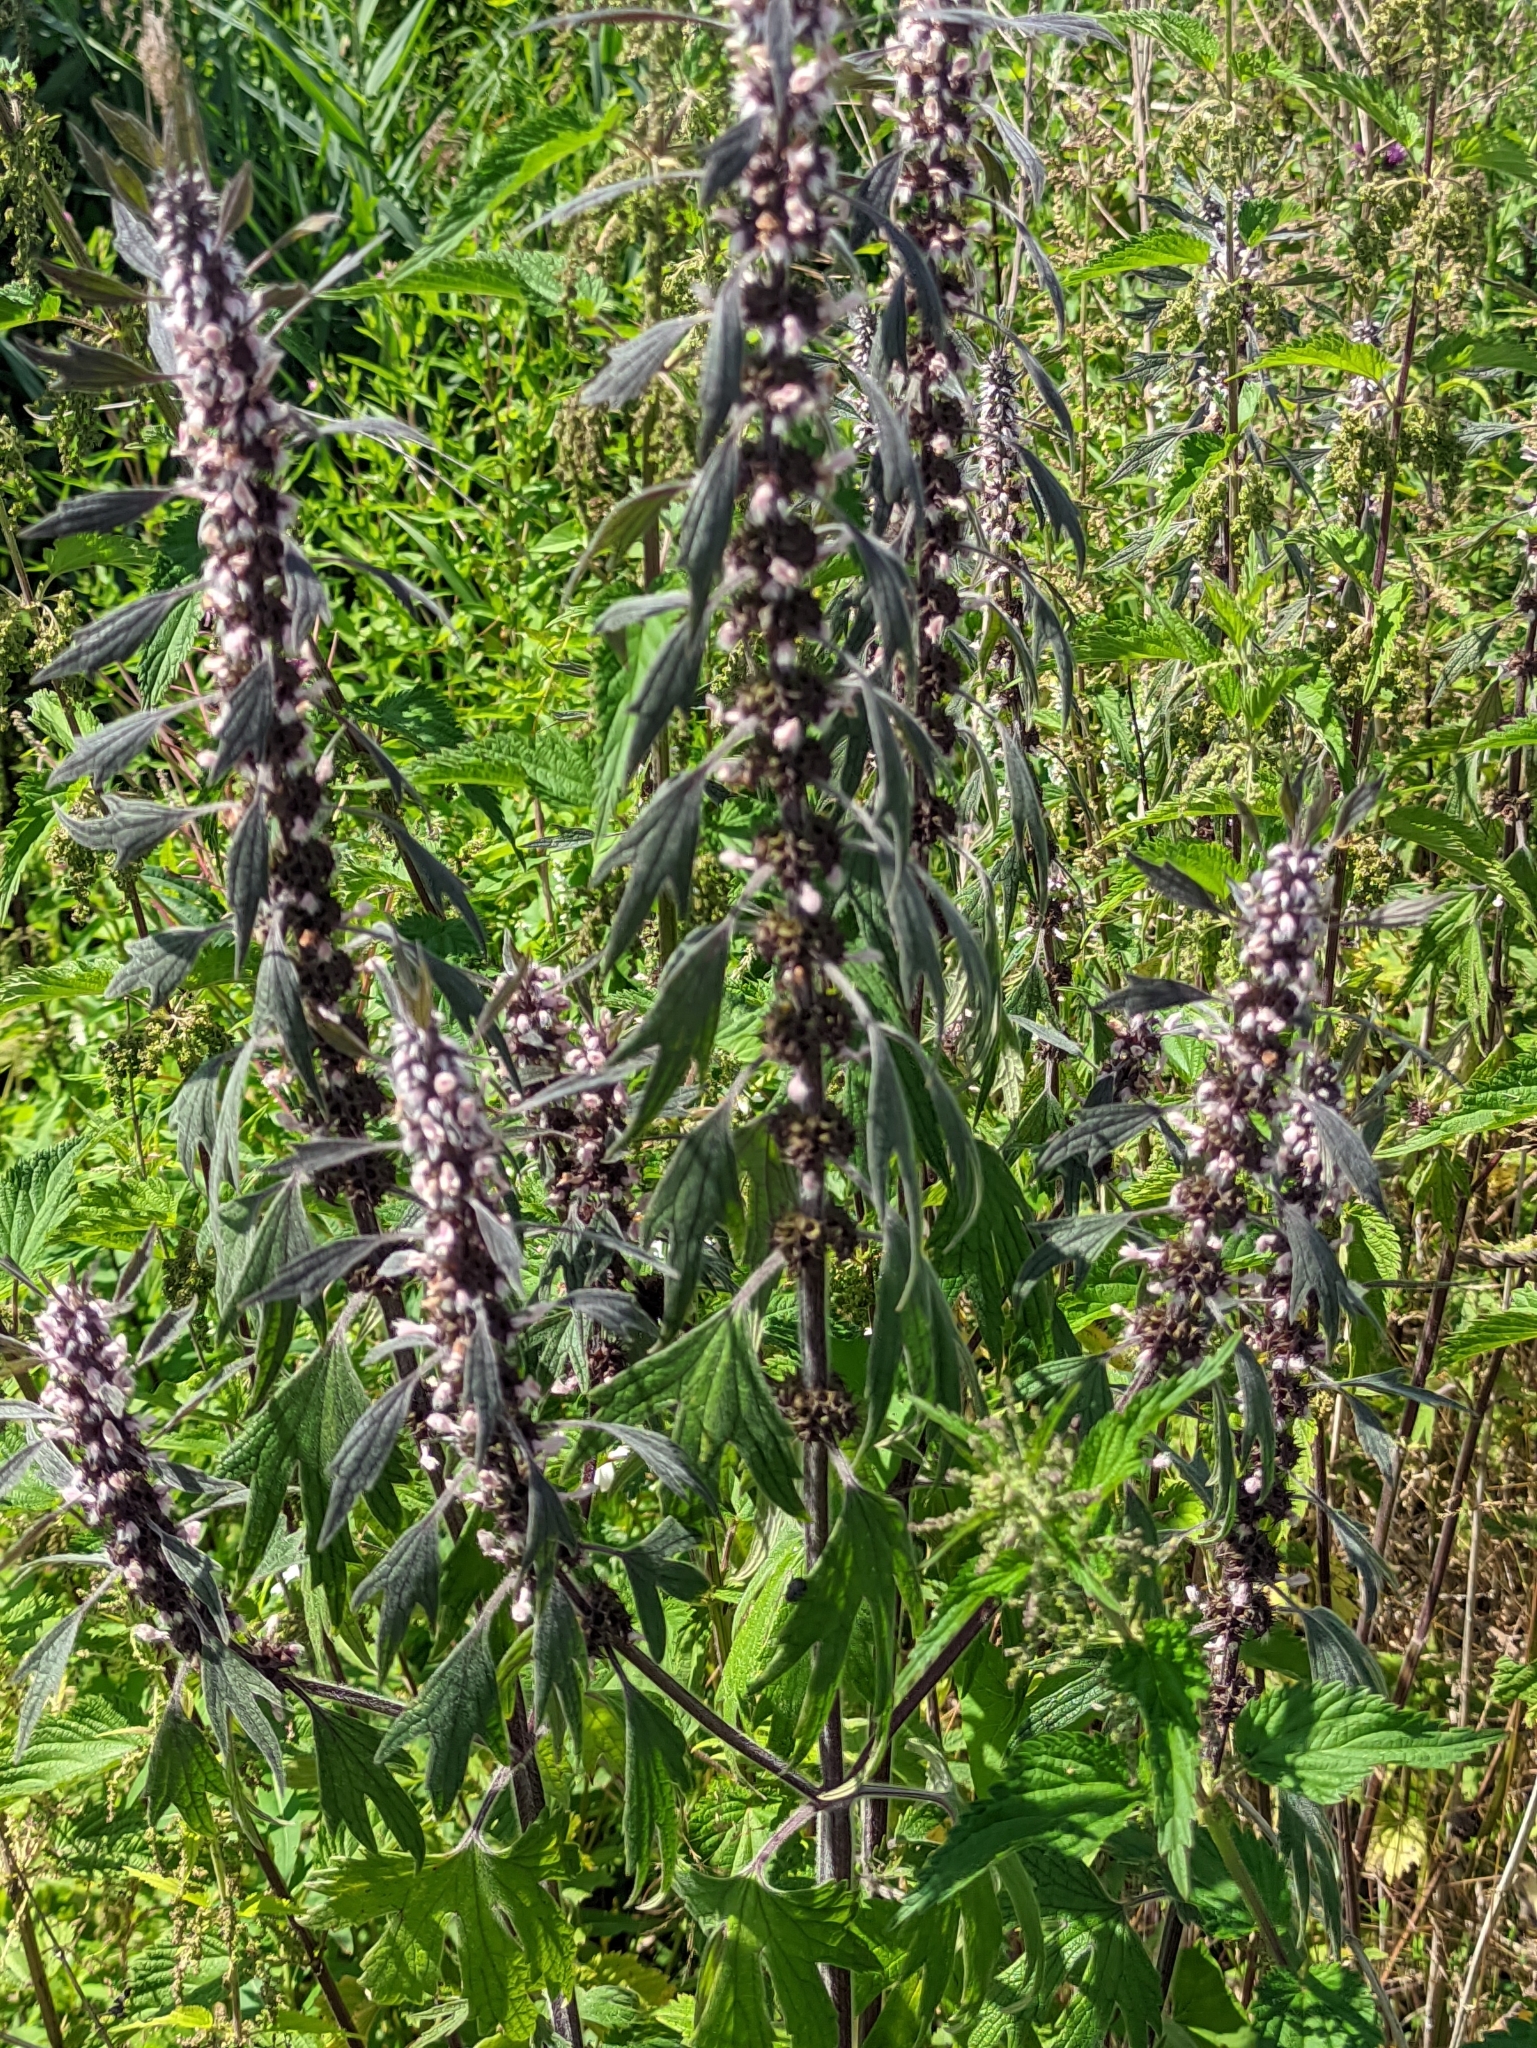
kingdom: Plantae
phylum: Tracheophyta
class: Magnoliopsida
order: Lamiales
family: Lamiaceae
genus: Leonurus
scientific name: Leonurus quinquelobatus
